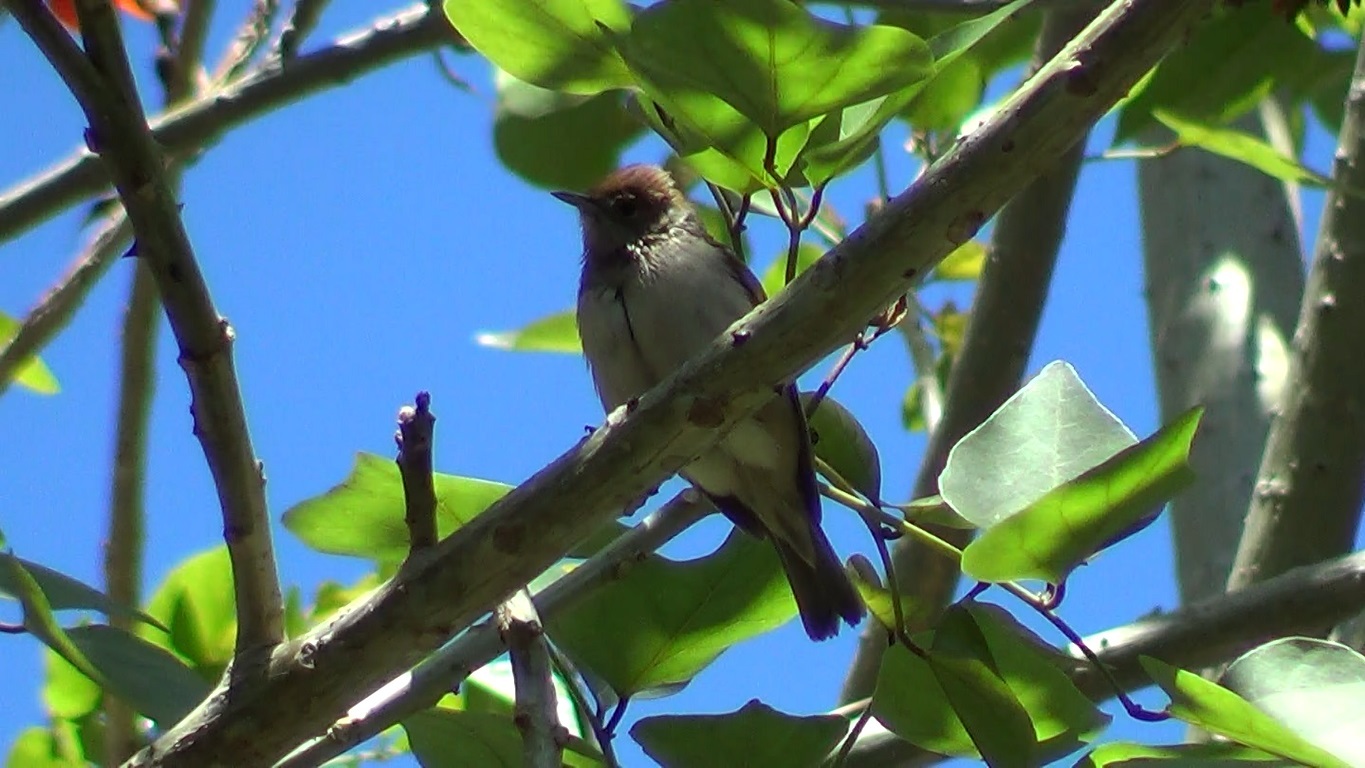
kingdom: Animalia
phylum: Chordata
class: Aves
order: Passeriformes
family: Sylviidae
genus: Sylvia
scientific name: Sylvia atricapilla
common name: Eurasian blackcap
